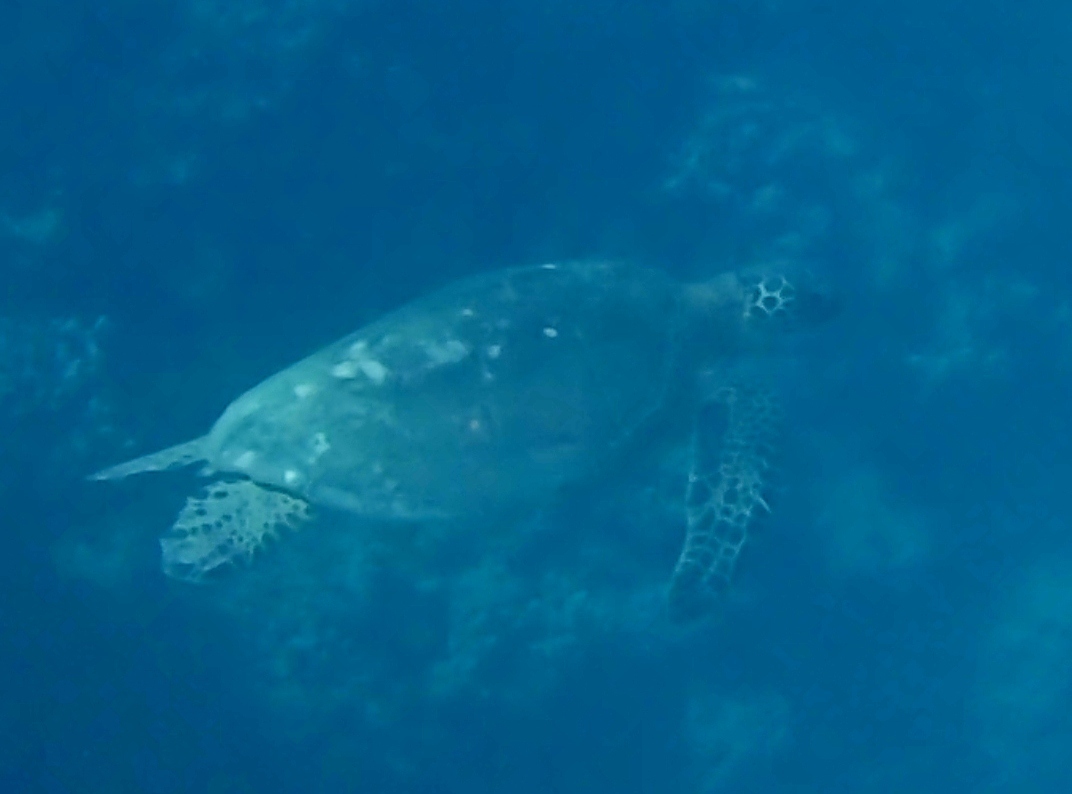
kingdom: Animalia
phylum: Chordata
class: Testudines
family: Cheloniidae
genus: Chelonia
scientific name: Chelonia mydas
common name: Green turtle
